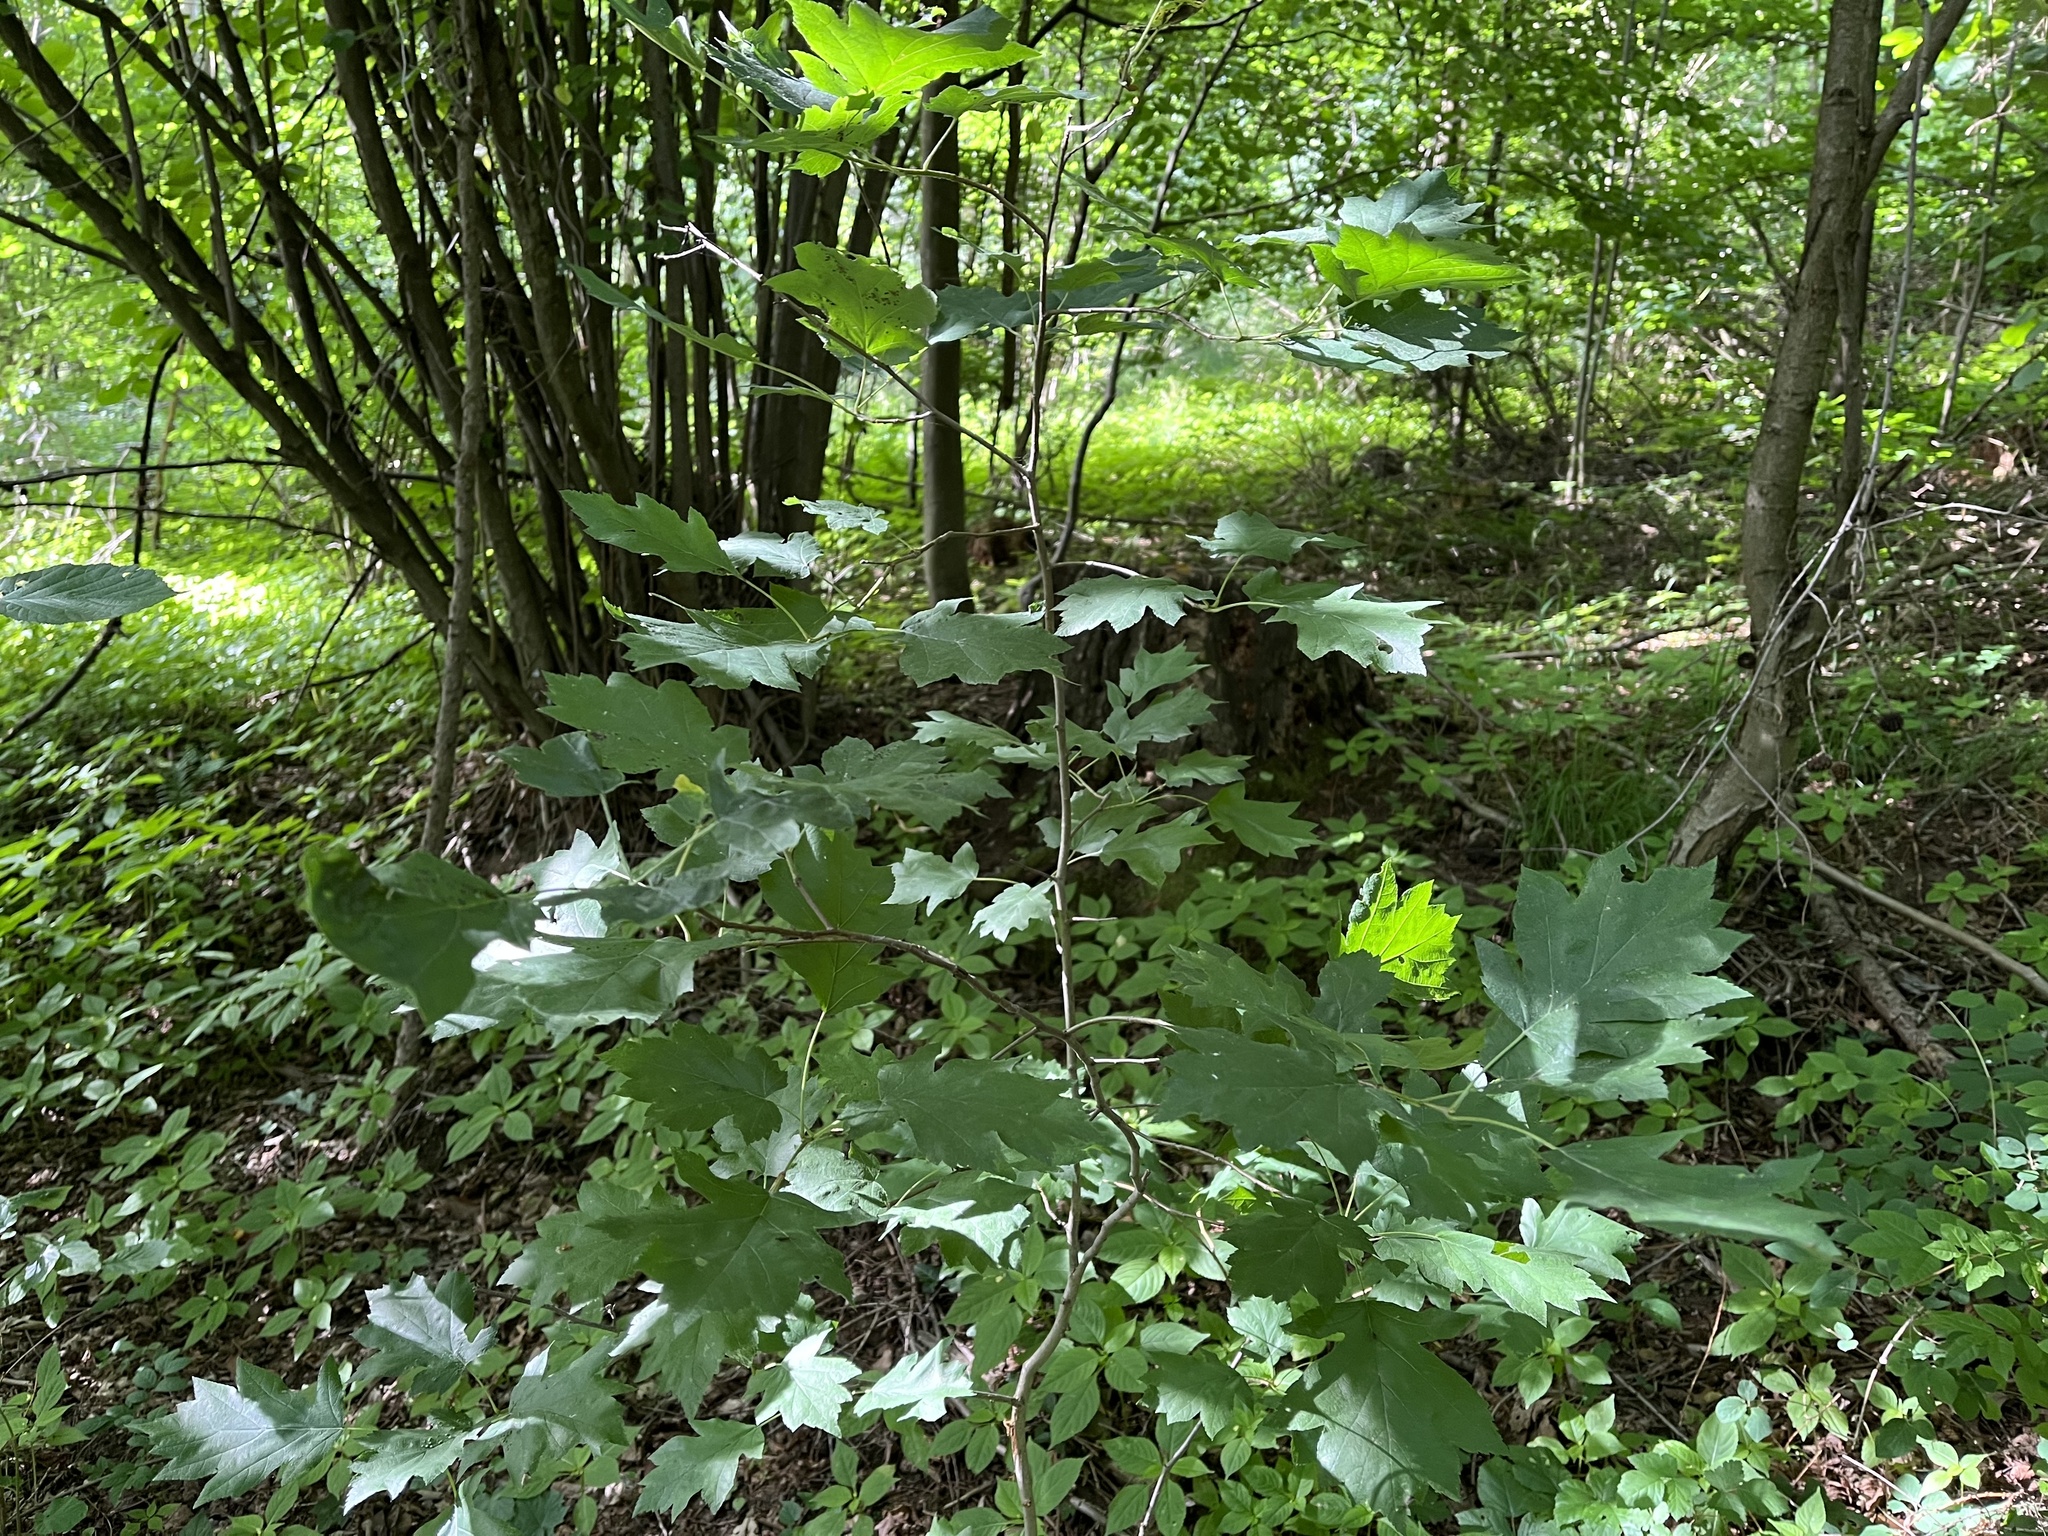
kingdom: Plantae
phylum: Tracheophyta
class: Magnoliopsida
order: Rosales
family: Rosaceae
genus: Torminalis
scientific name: Torminalis glaberrima
